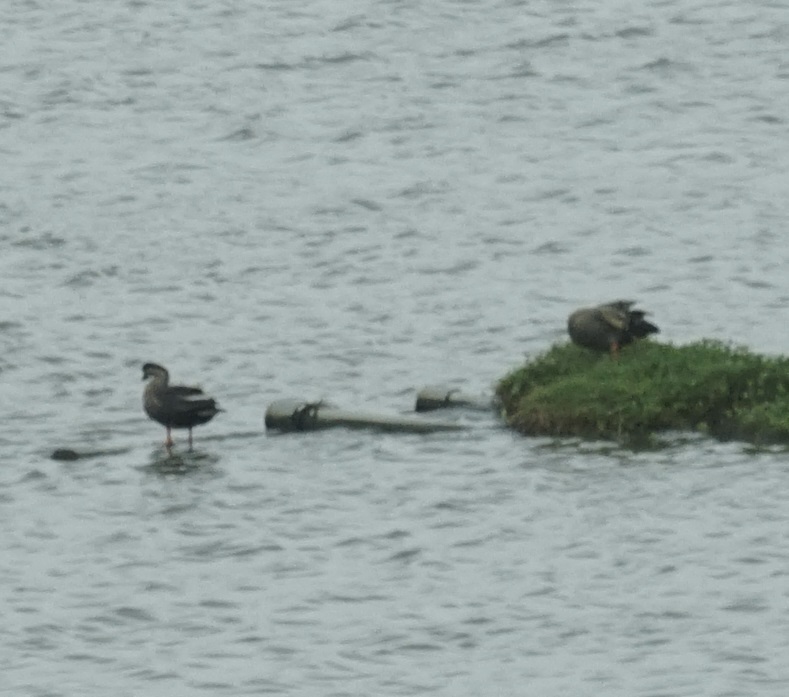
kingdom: Animalia
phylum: Chordata
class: Aves
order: Anseriformes
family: Anatidae
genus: Anas
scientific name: Anas zonorhyncha
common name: Eastern spot-billed duck
